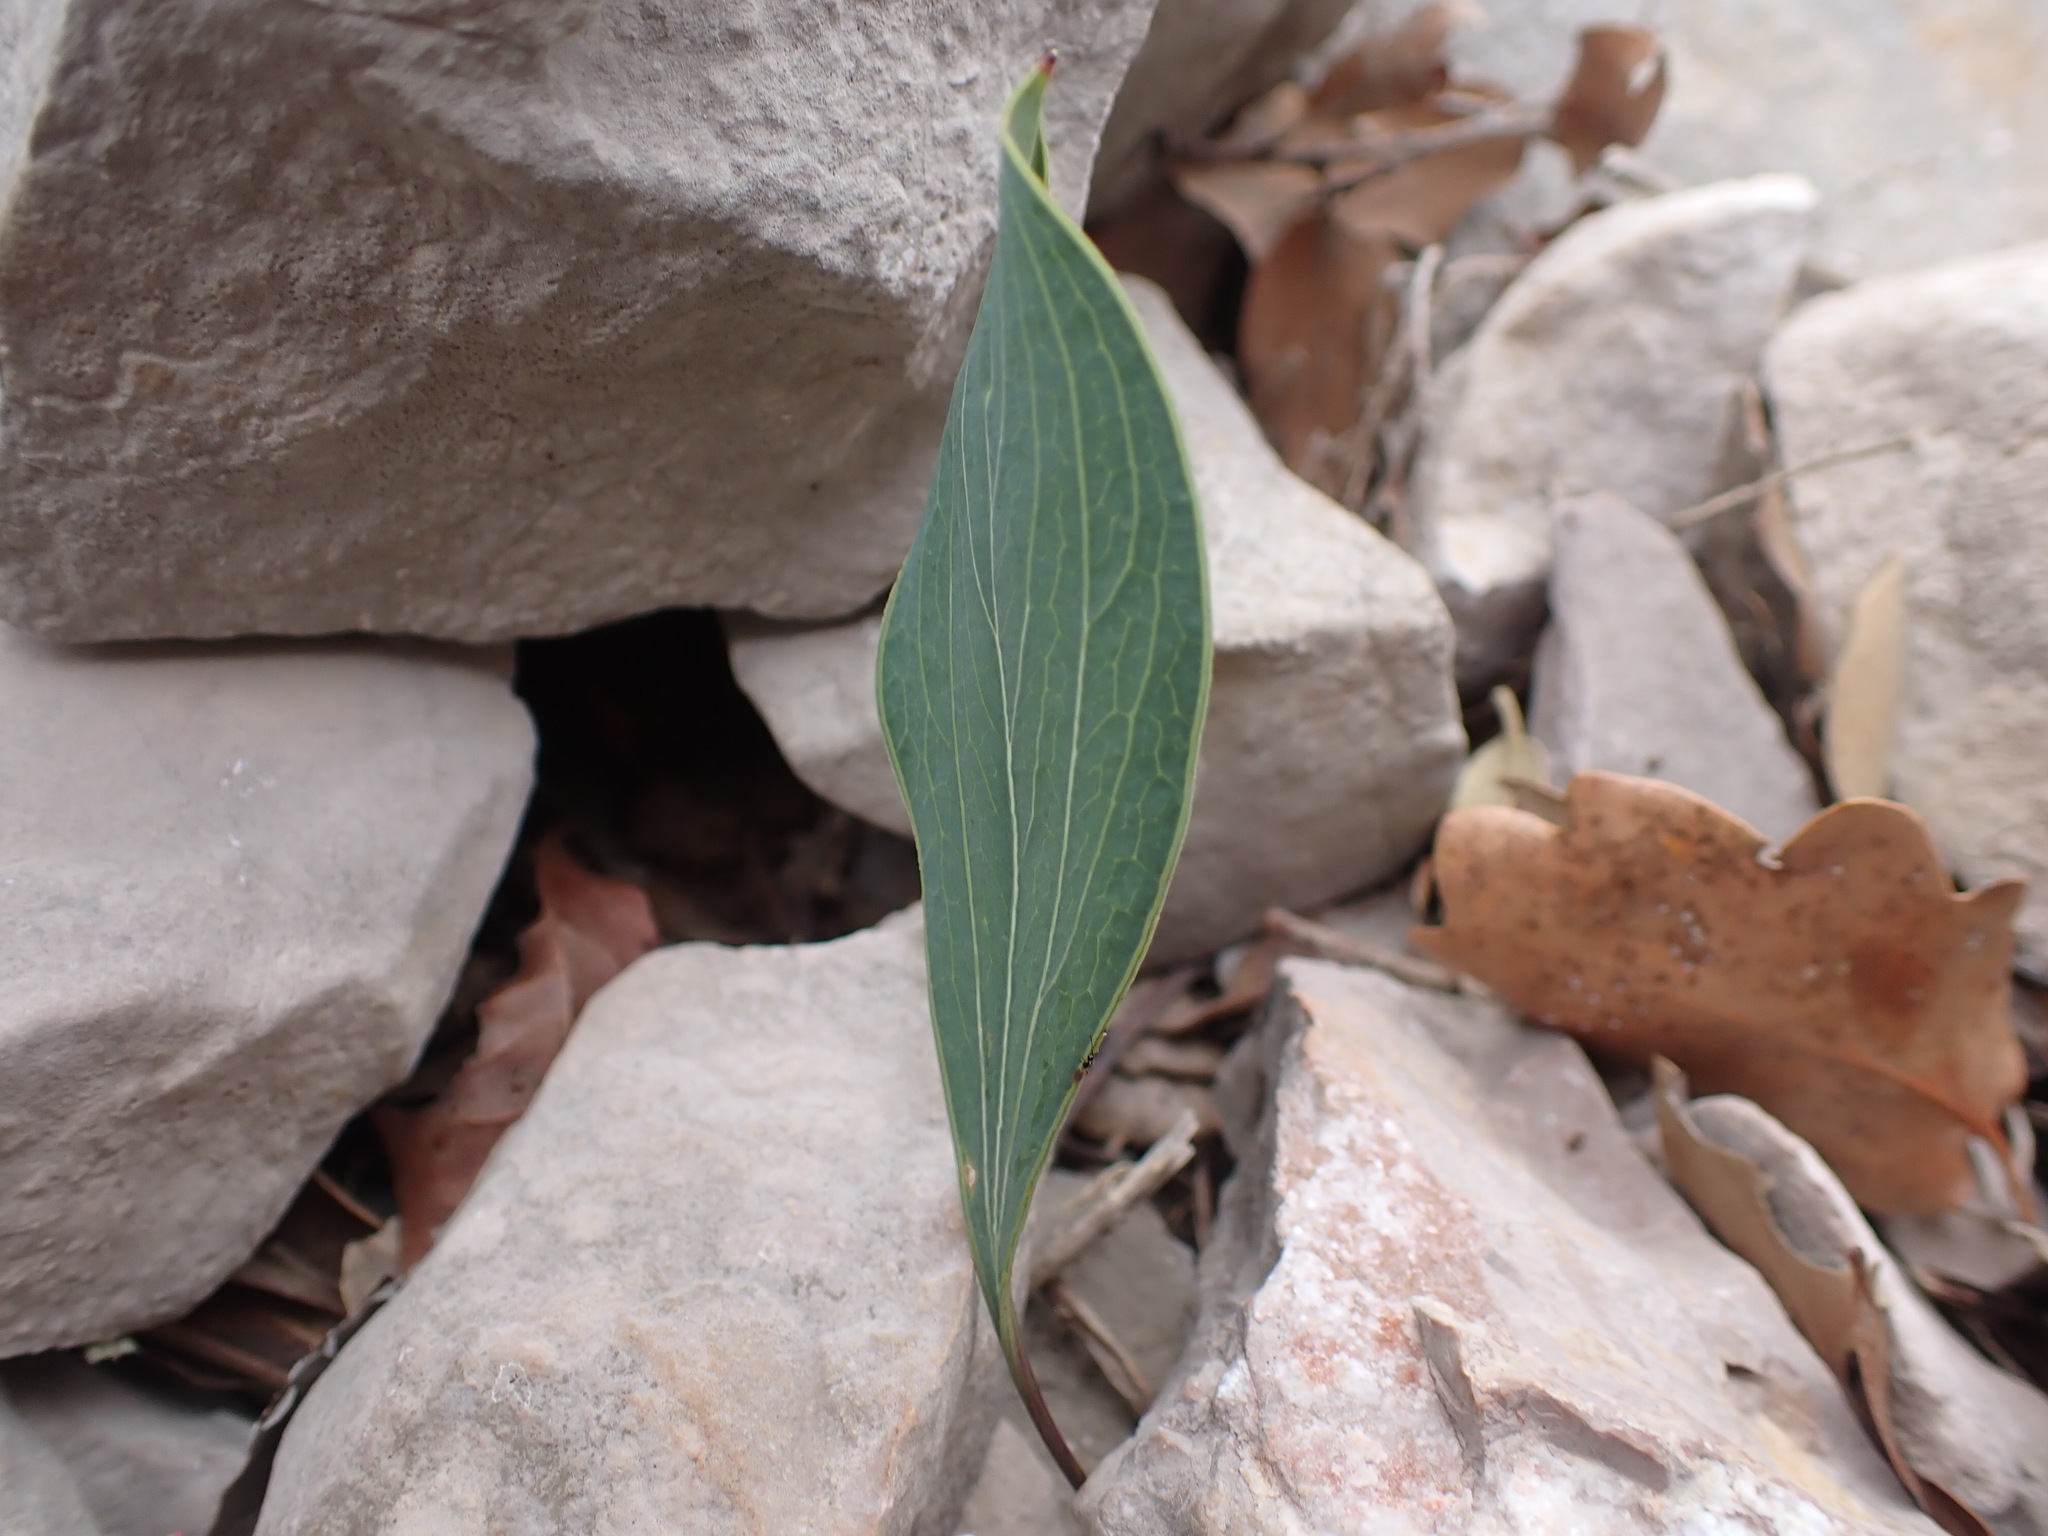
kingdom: Plantae
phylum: Tracheophyta
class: Magnoliopsida
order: Apiales
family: Apiaceae
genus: Bupleurum
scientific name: Bupleurum rigidum
